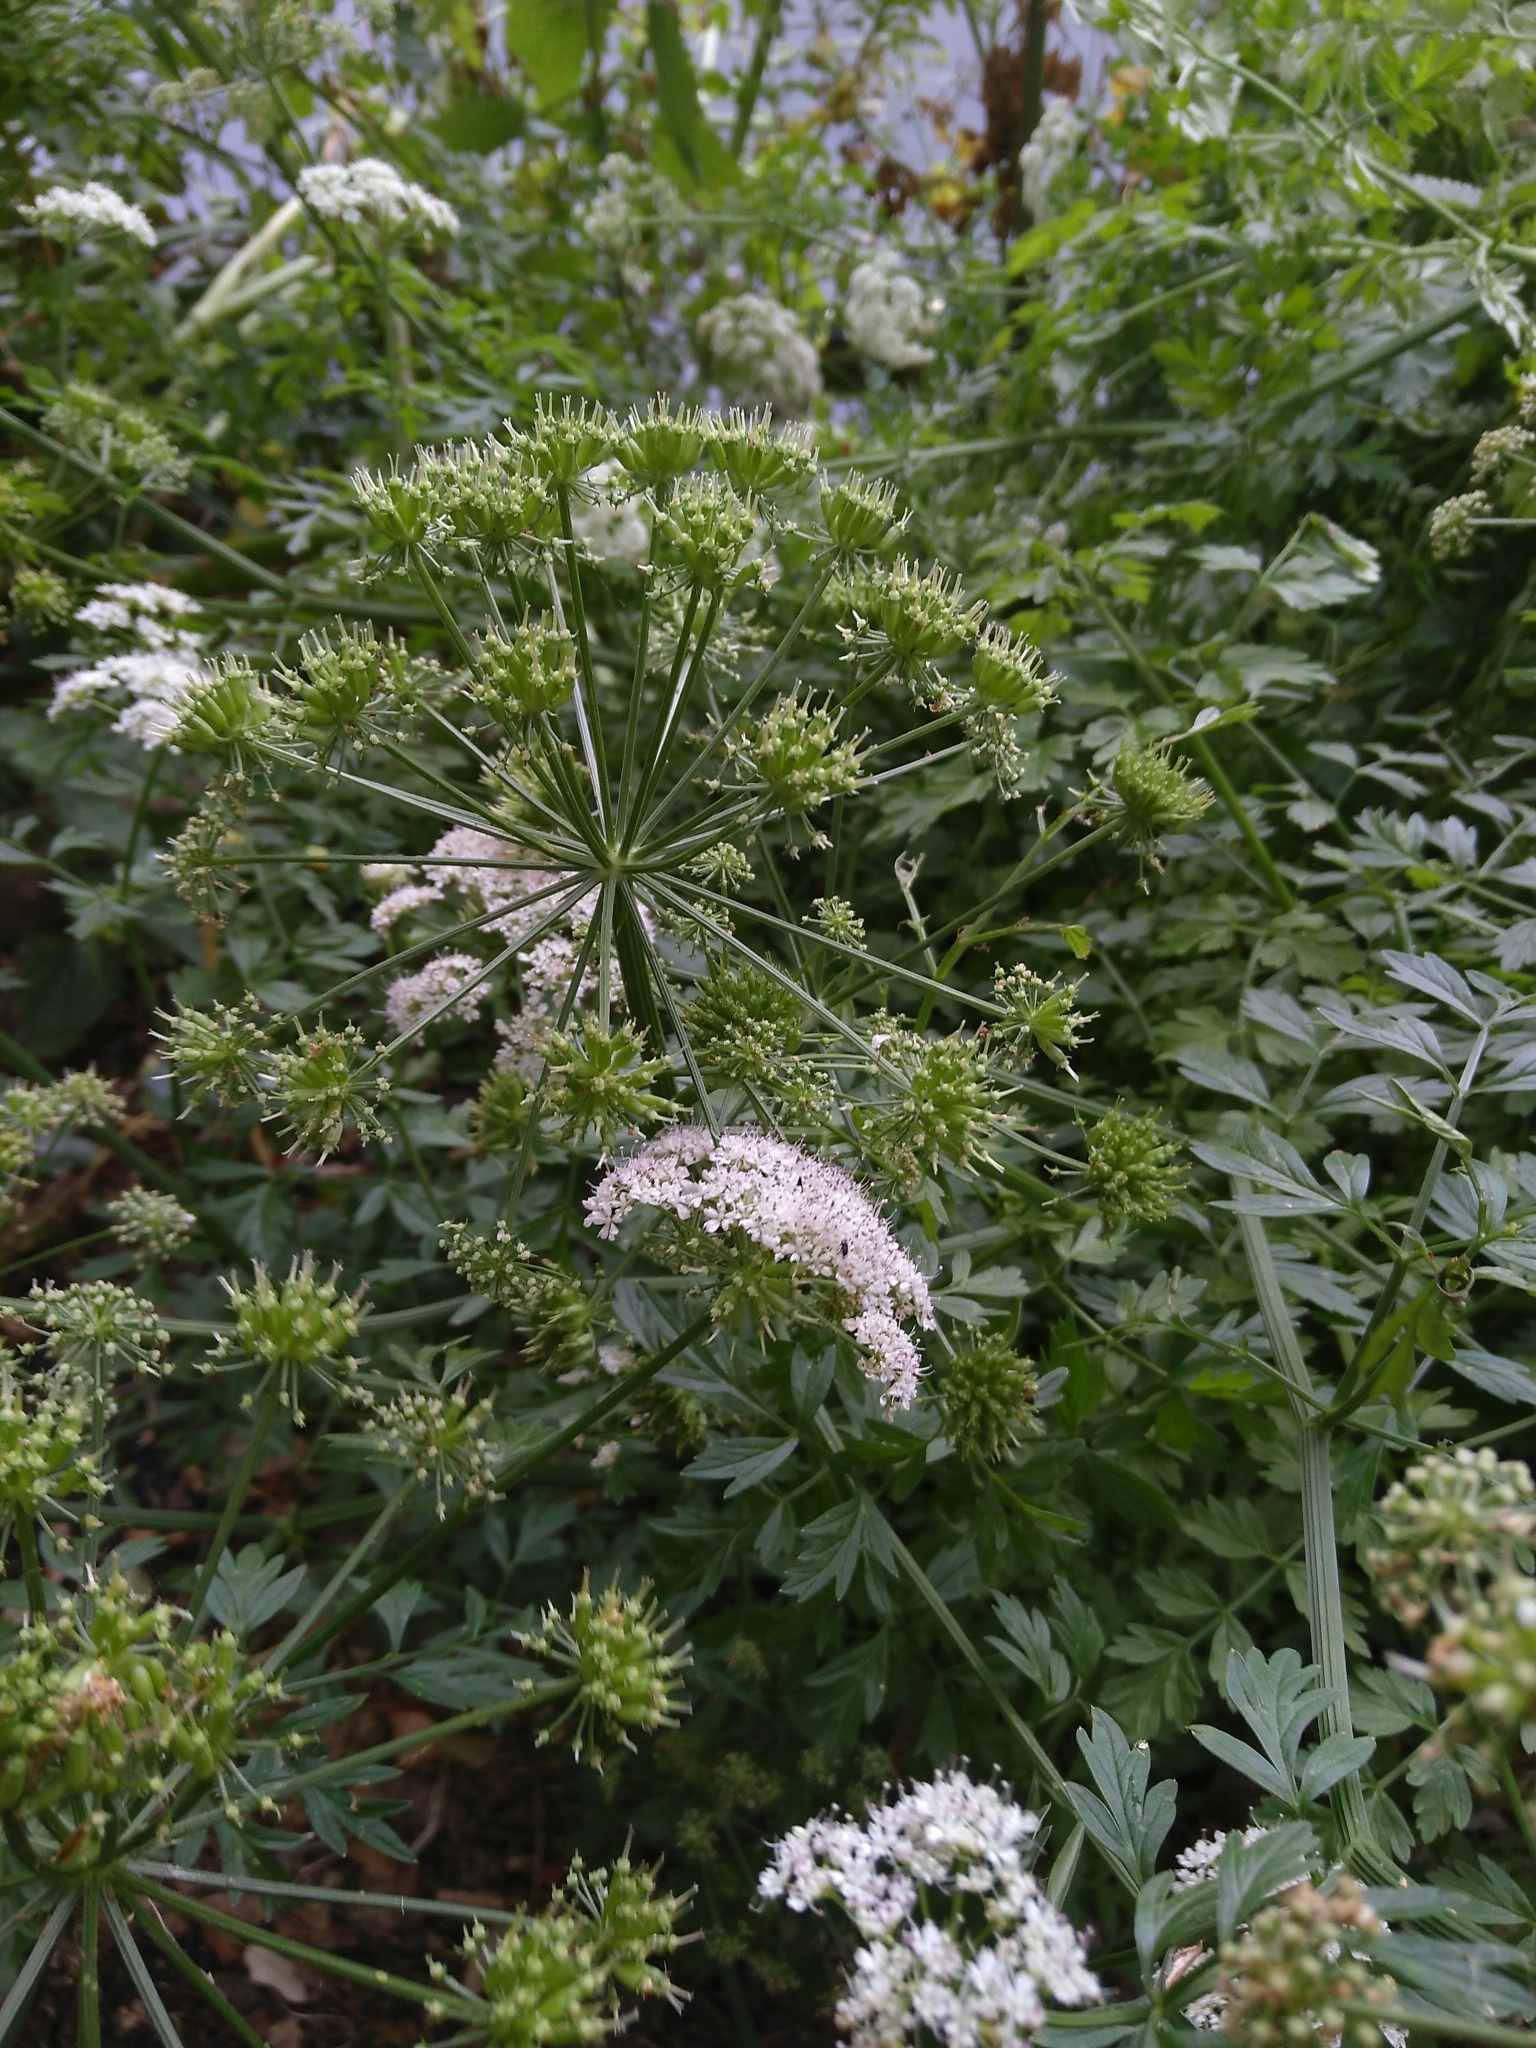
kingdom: Plantae
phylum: Tracheophyta
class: Magnoliopsida
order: Apiales
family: Apiaceae
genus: Oenanthe
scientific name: Oenanthe crocata
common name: Hemlock water-dropwort
